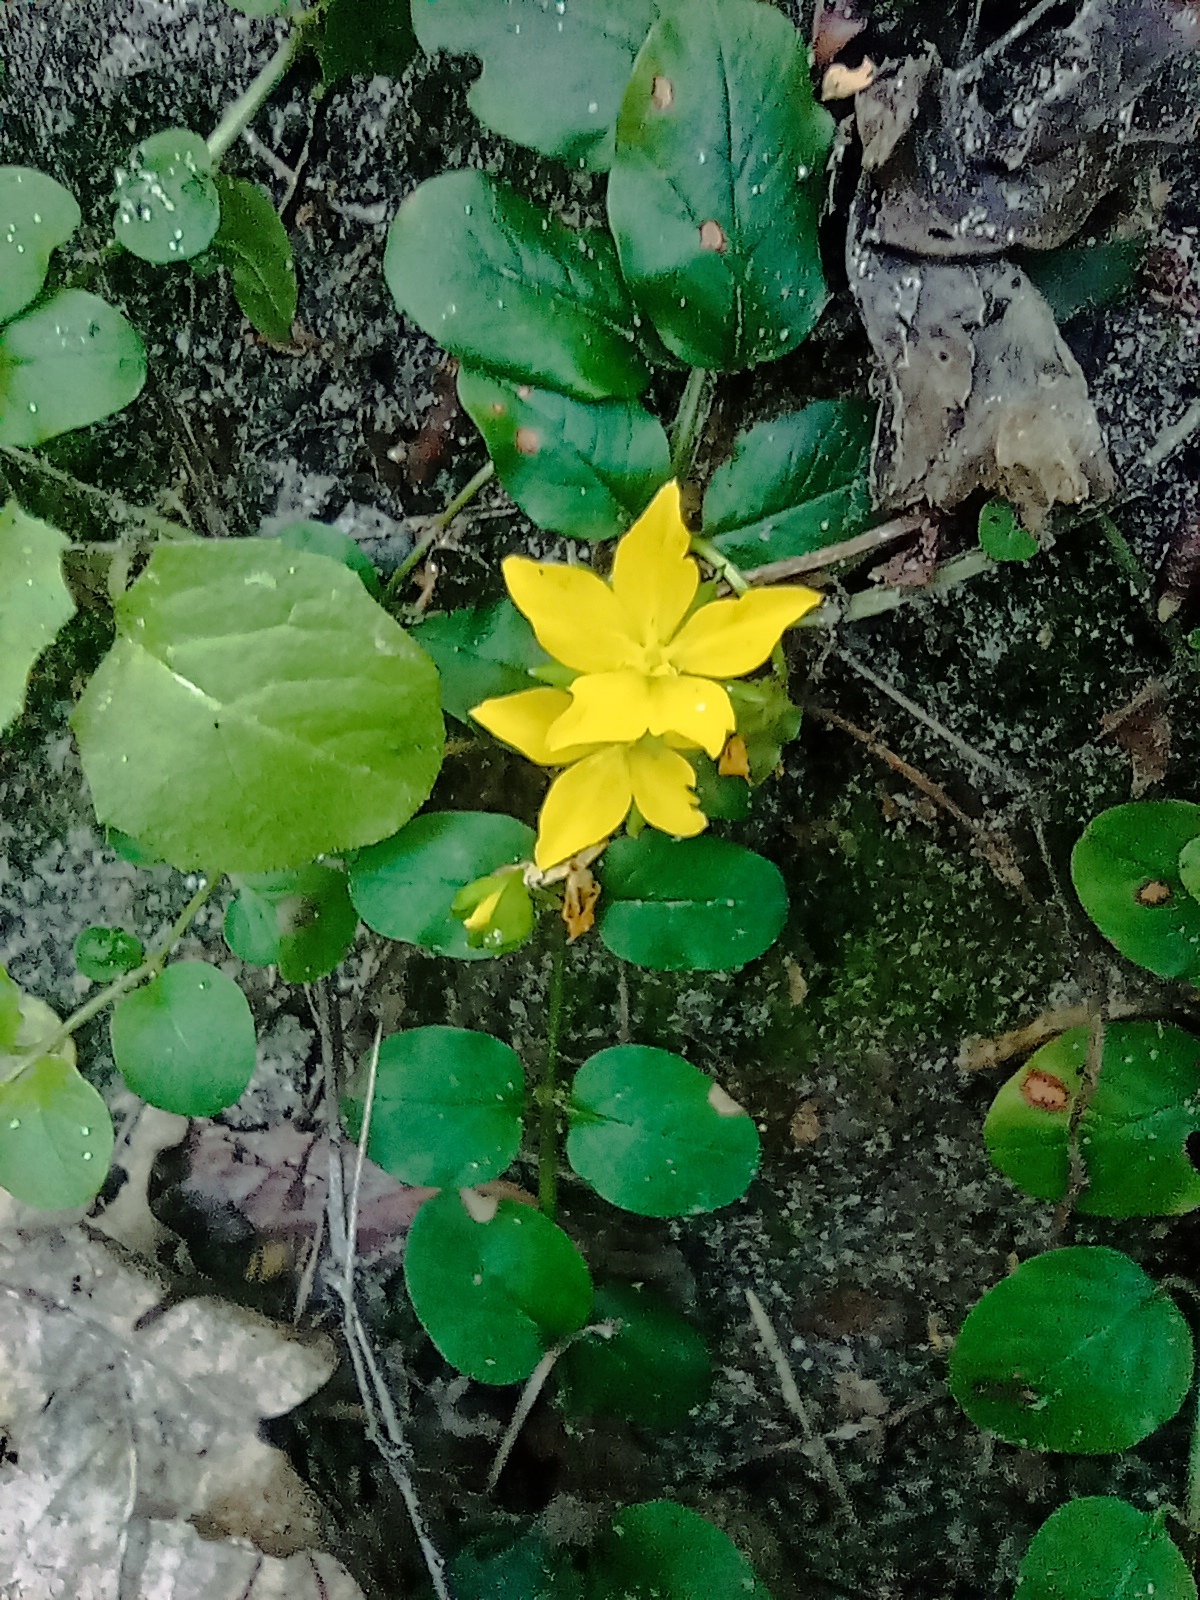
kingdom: Plantae
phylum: Tracheophyta
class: Magnoliopsida
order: Ericales
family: Primulaceae
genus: Lysimachia
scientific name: Lysimachia nummularia
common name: Moneywort
